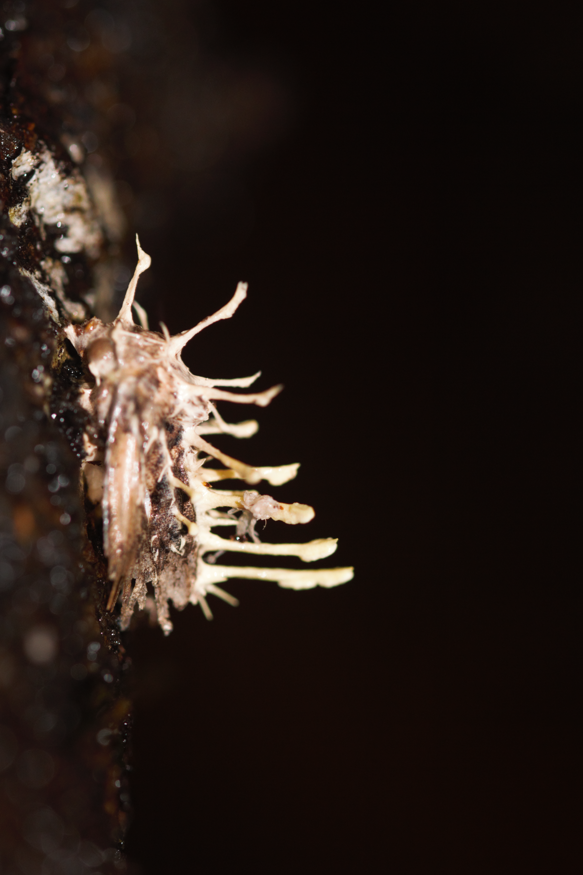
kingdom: Fungi
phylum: Ascomycota
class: Sordariomycetes
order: Hypocreales
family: Cordycipitaceae
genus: Akanthomyces
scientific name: Akanthomyces
